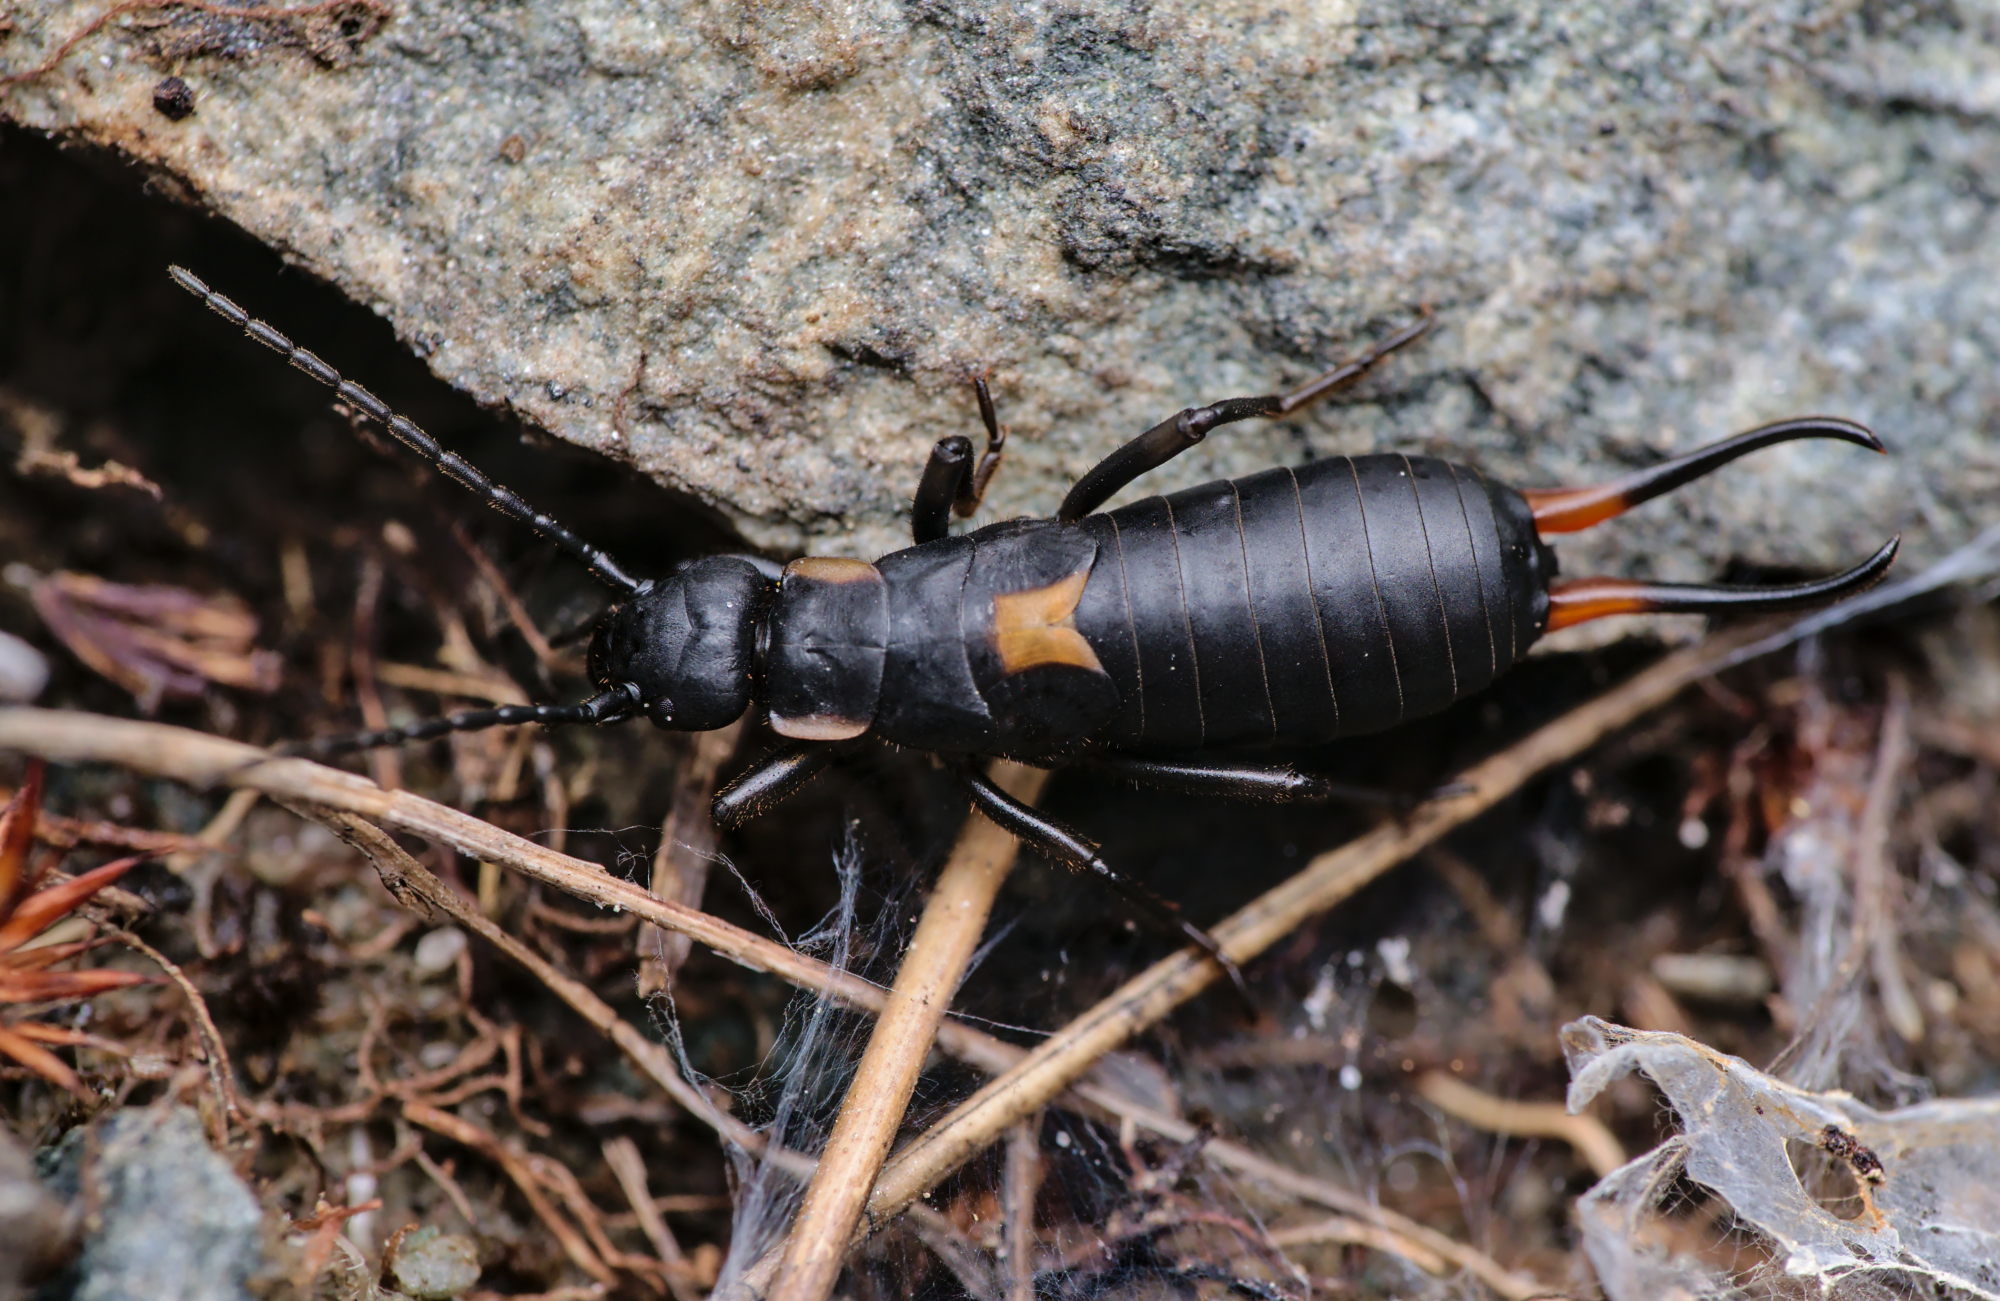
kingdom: Animalia
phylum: Arthropoda
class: Insecta
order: Dermaptera
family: Forficulidae
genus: Anechura
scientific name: Anechura bipunctata
